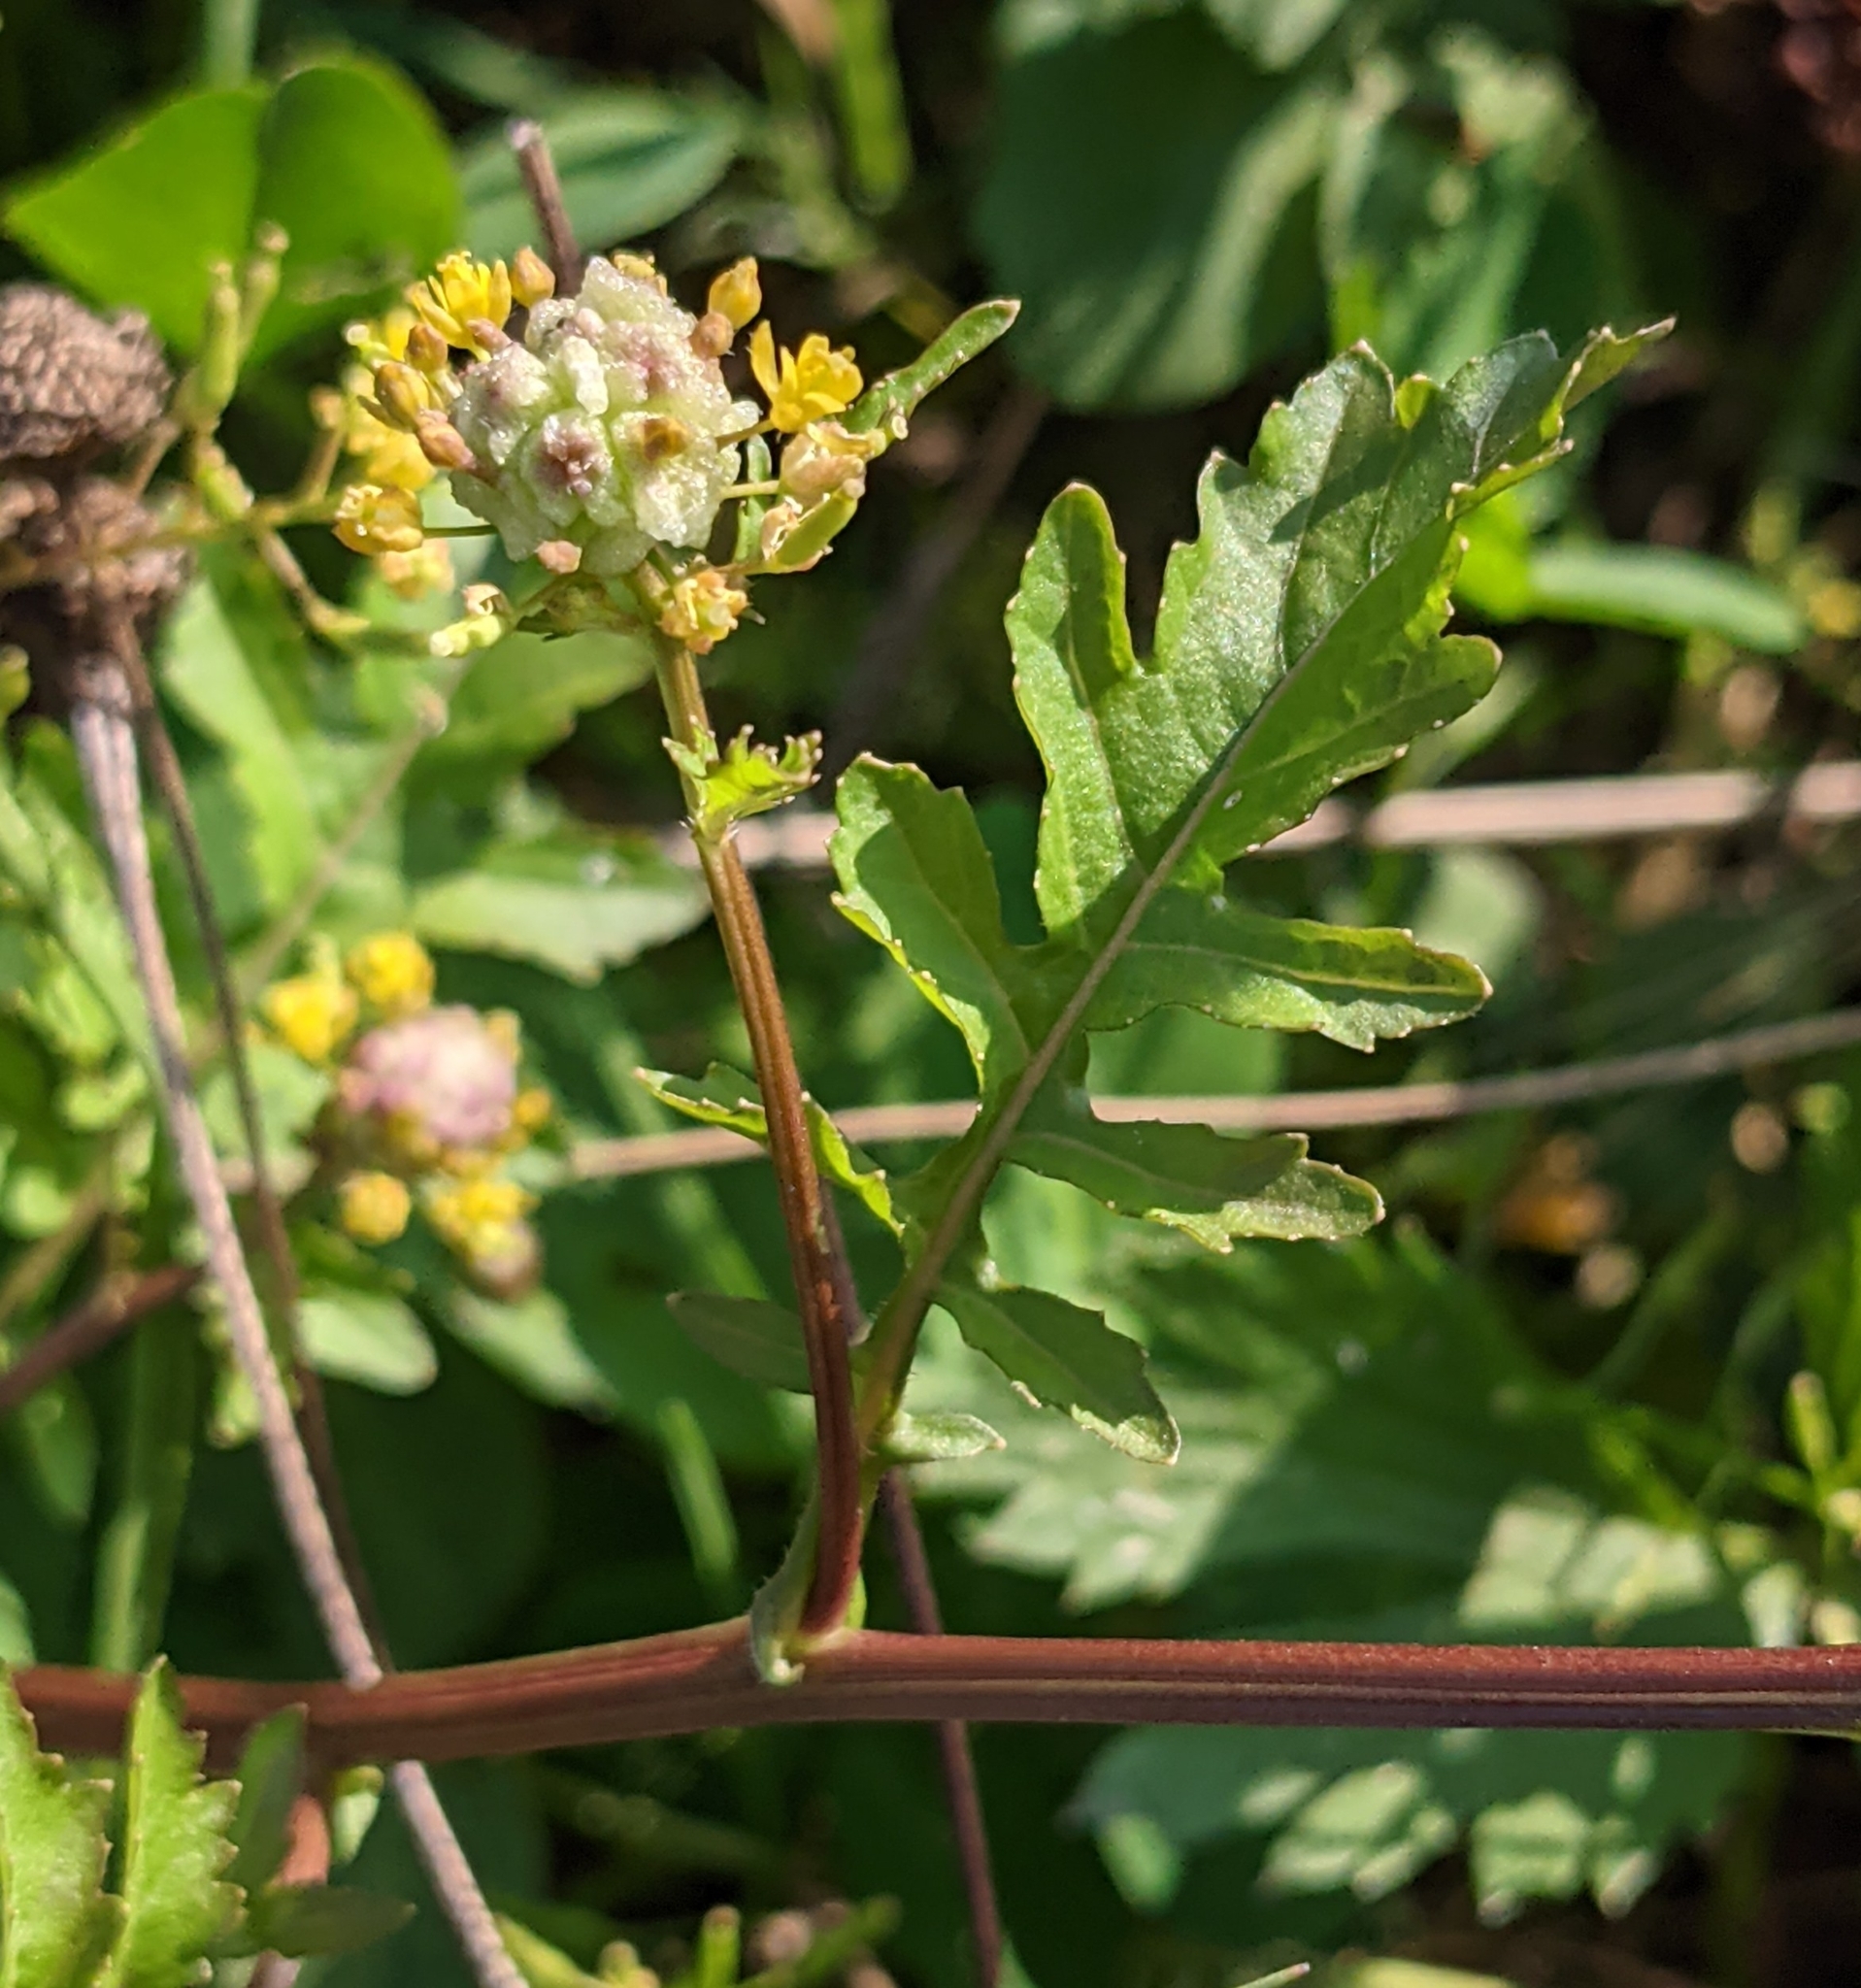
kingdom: Plantae
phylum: Tracheophyta
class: Magnoliopsida
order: Brassicales
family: Brassicaceae
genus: Rorippa
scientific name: Rorippa palustris
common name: Marsh yellow-cress
